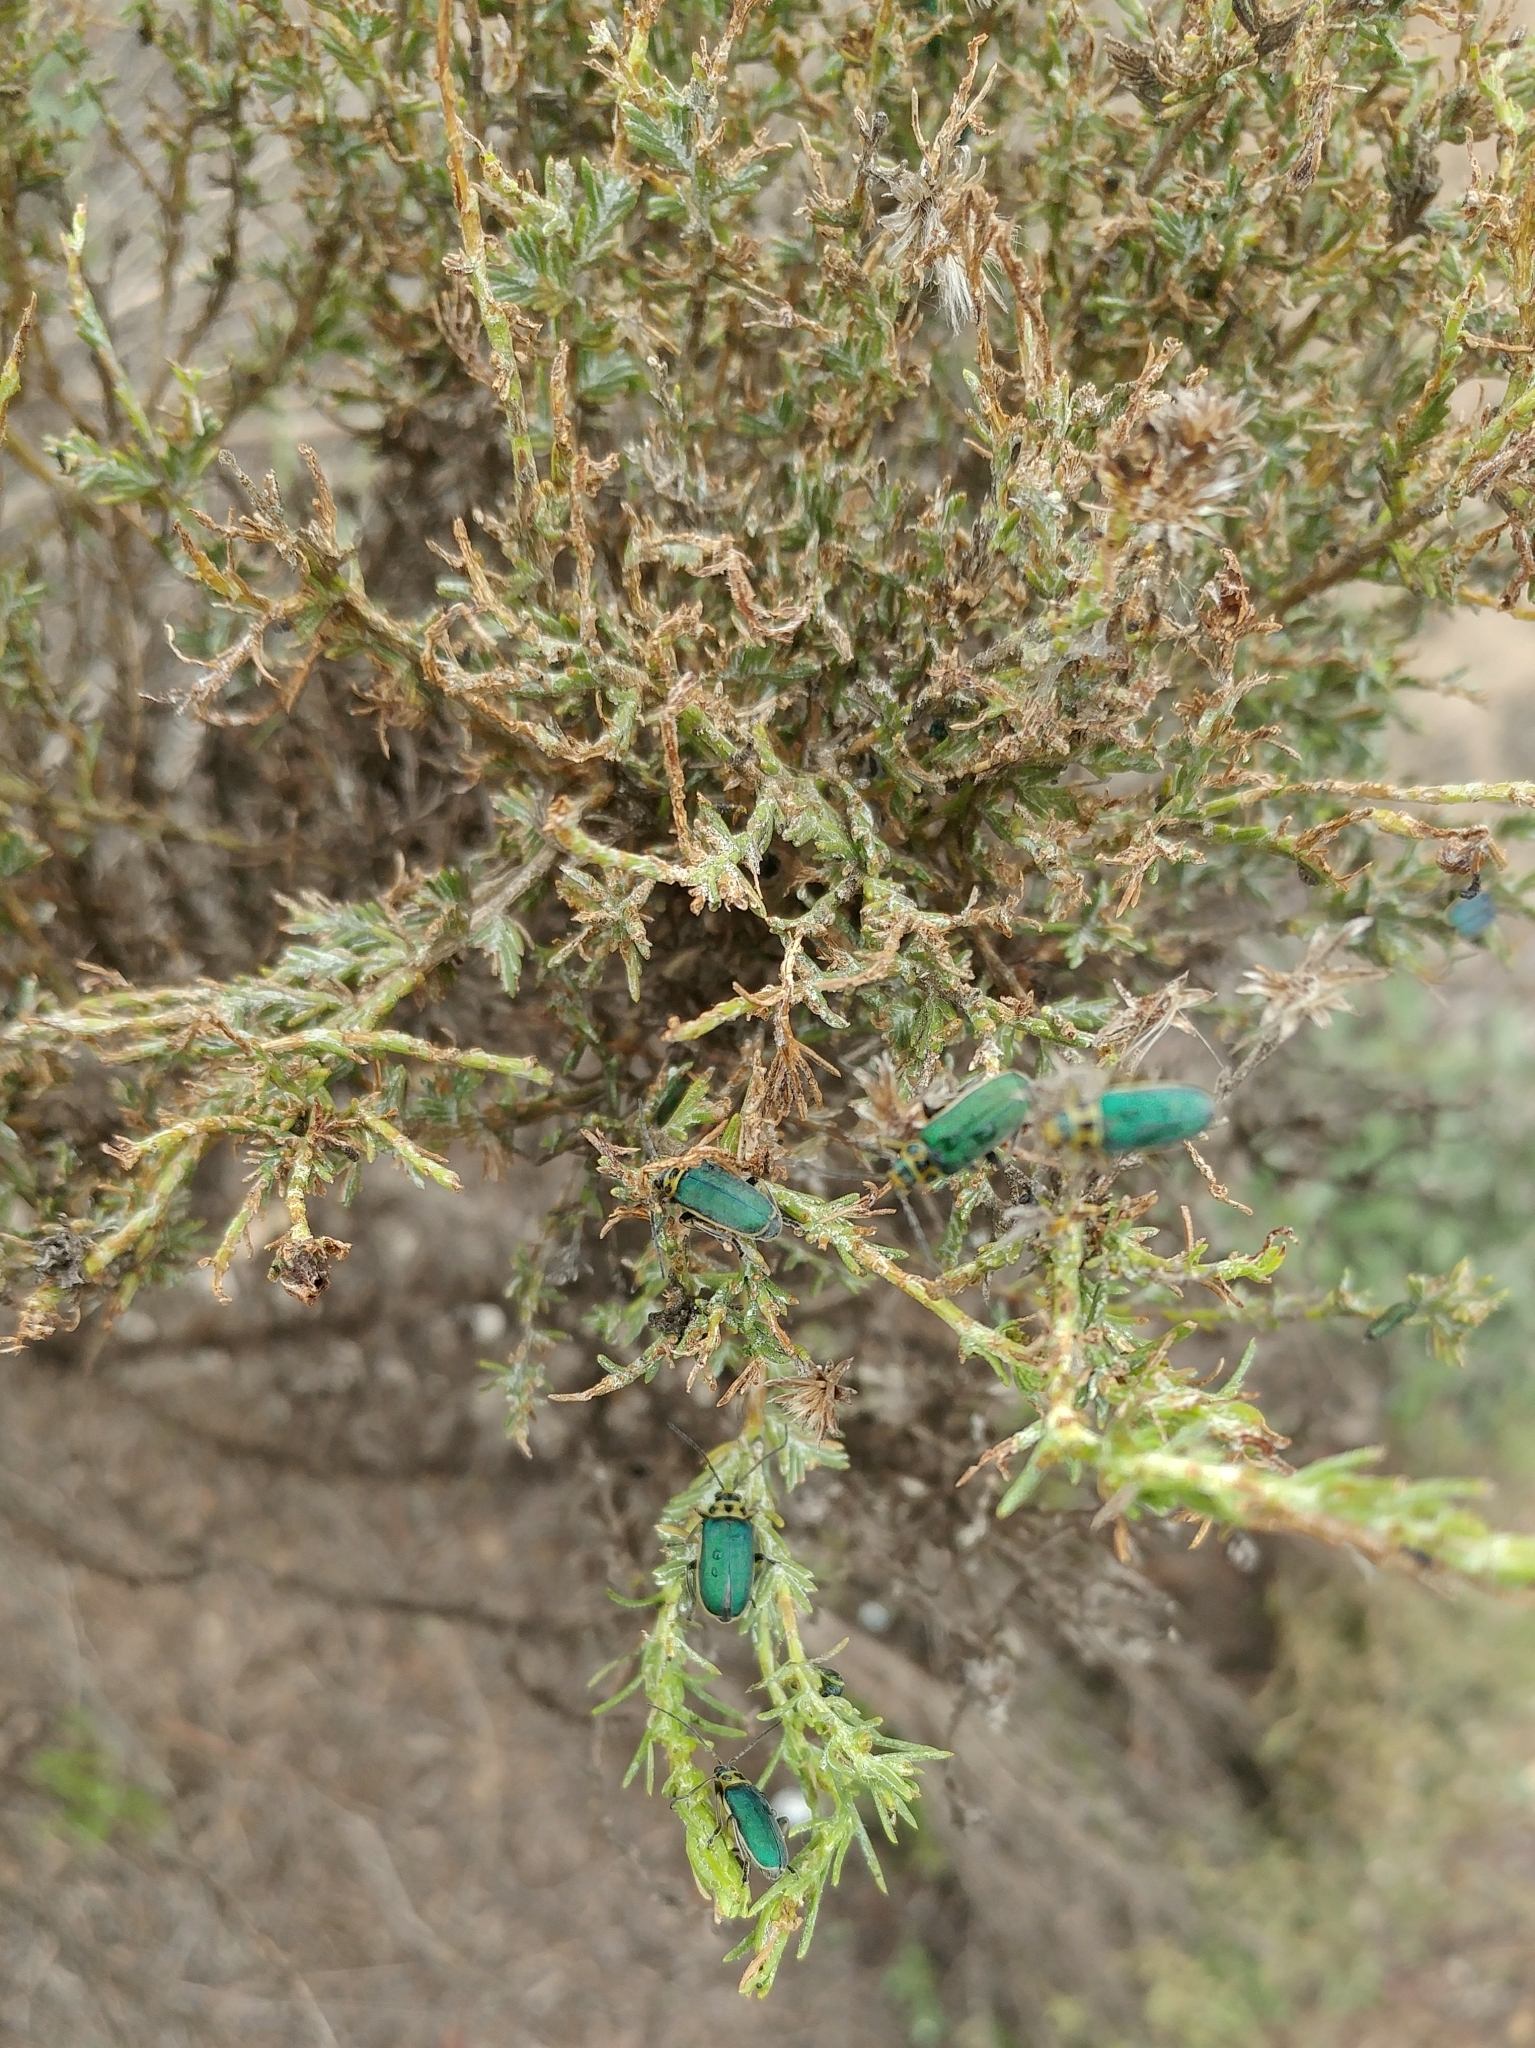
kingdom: Plantae
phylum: Tracheophyta
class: Magnoliopsida
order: Rosales
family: Rosaceae
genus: Adenostoma
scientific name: Adenostoma fasciculatum
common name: Chamise
